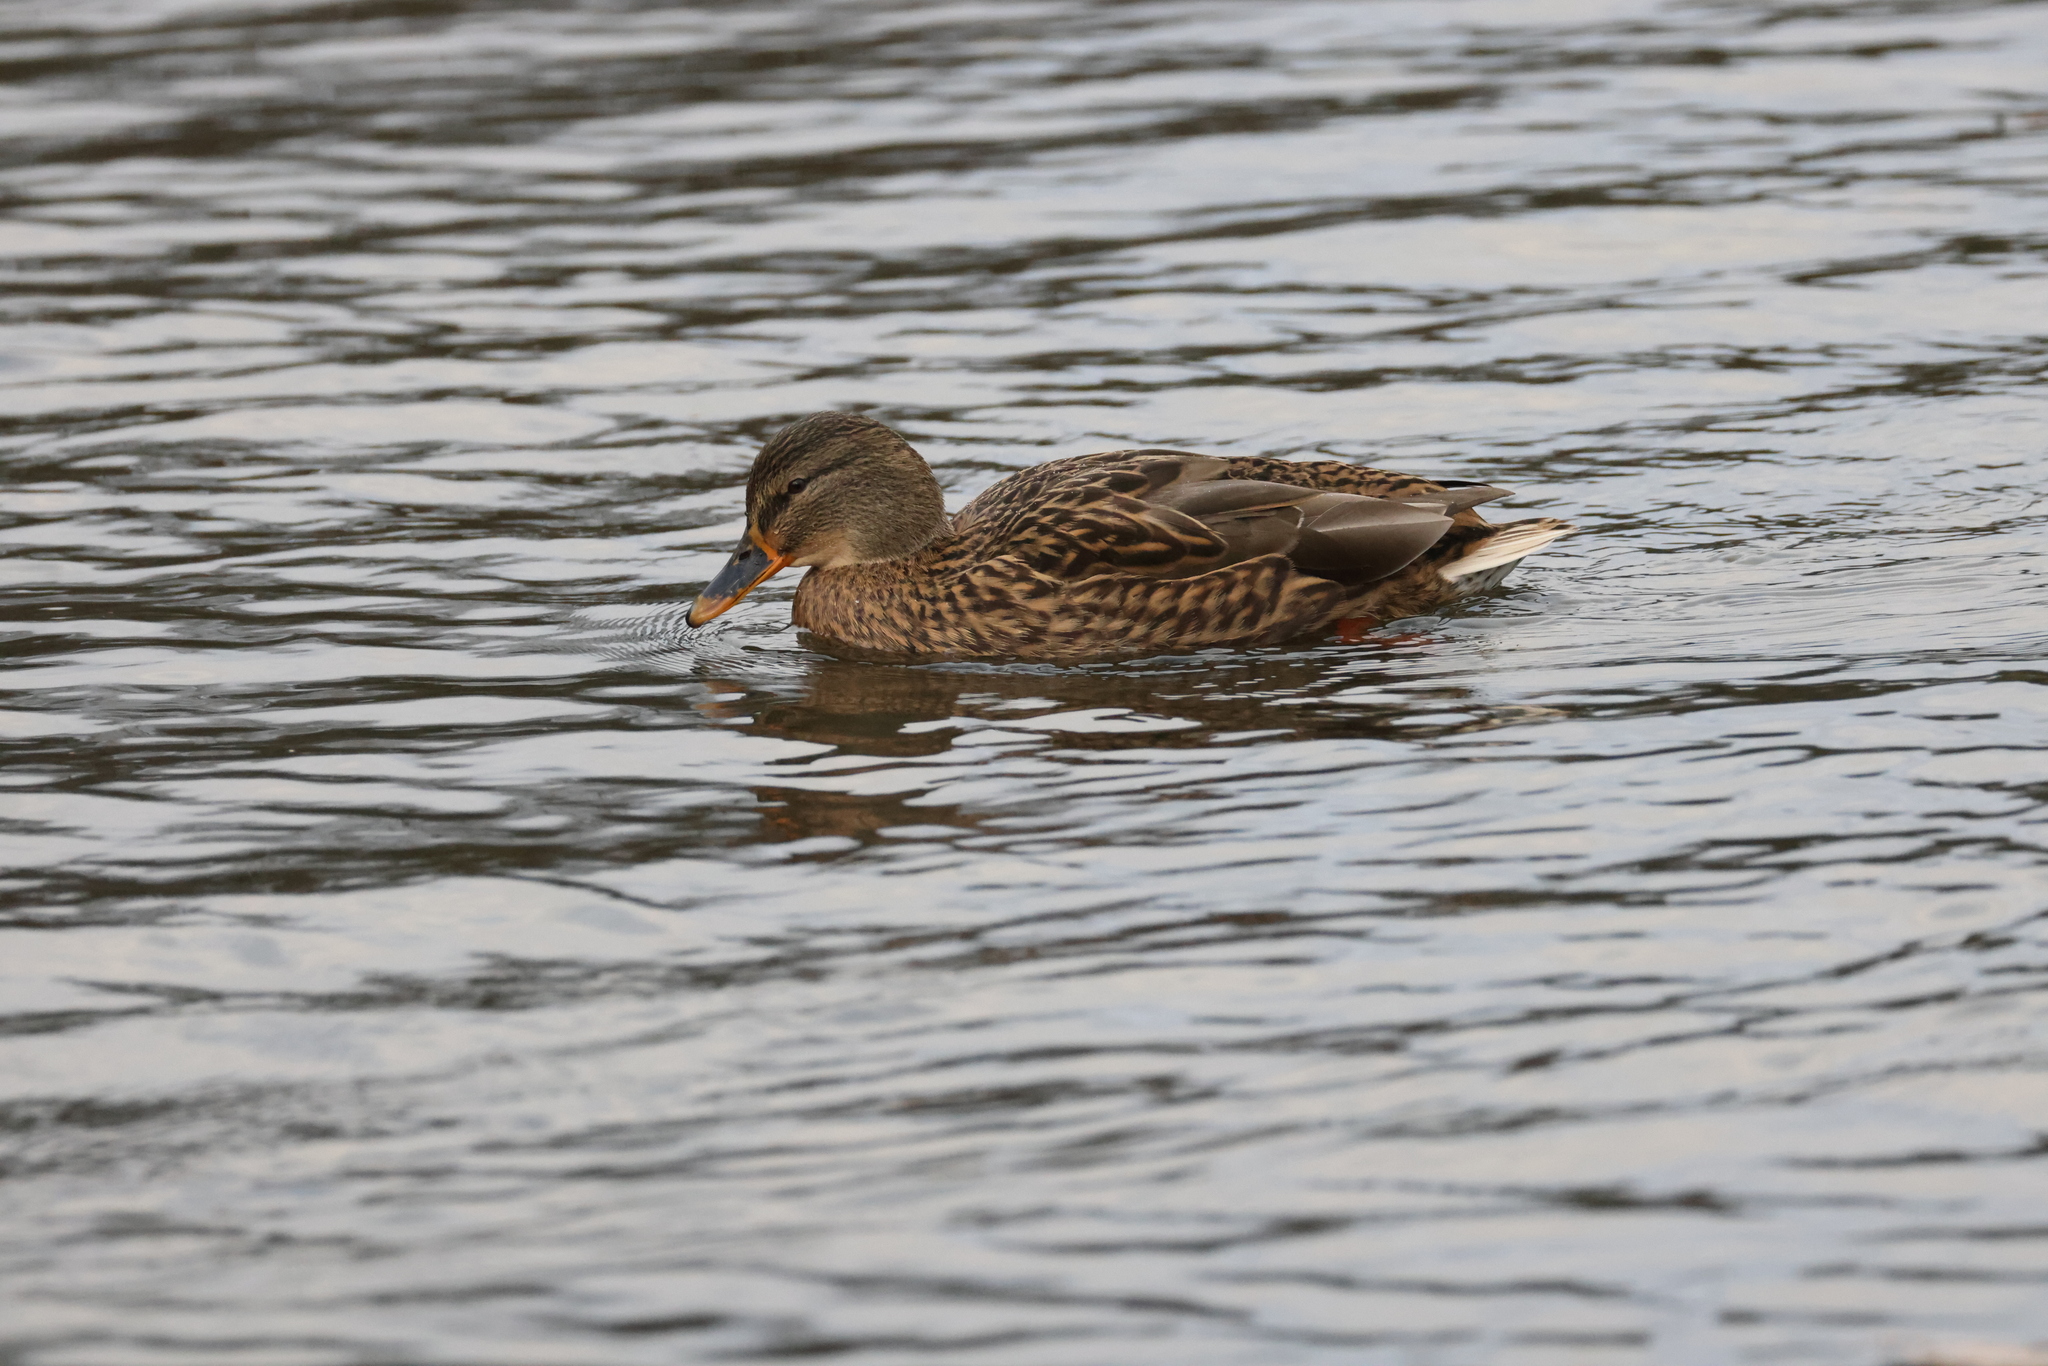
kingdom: Animalia
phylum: Chordata
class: Aves
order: Anseriformes
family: Anatidae
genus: Anas
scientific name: Anas platyrhynchos
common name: Mallard
